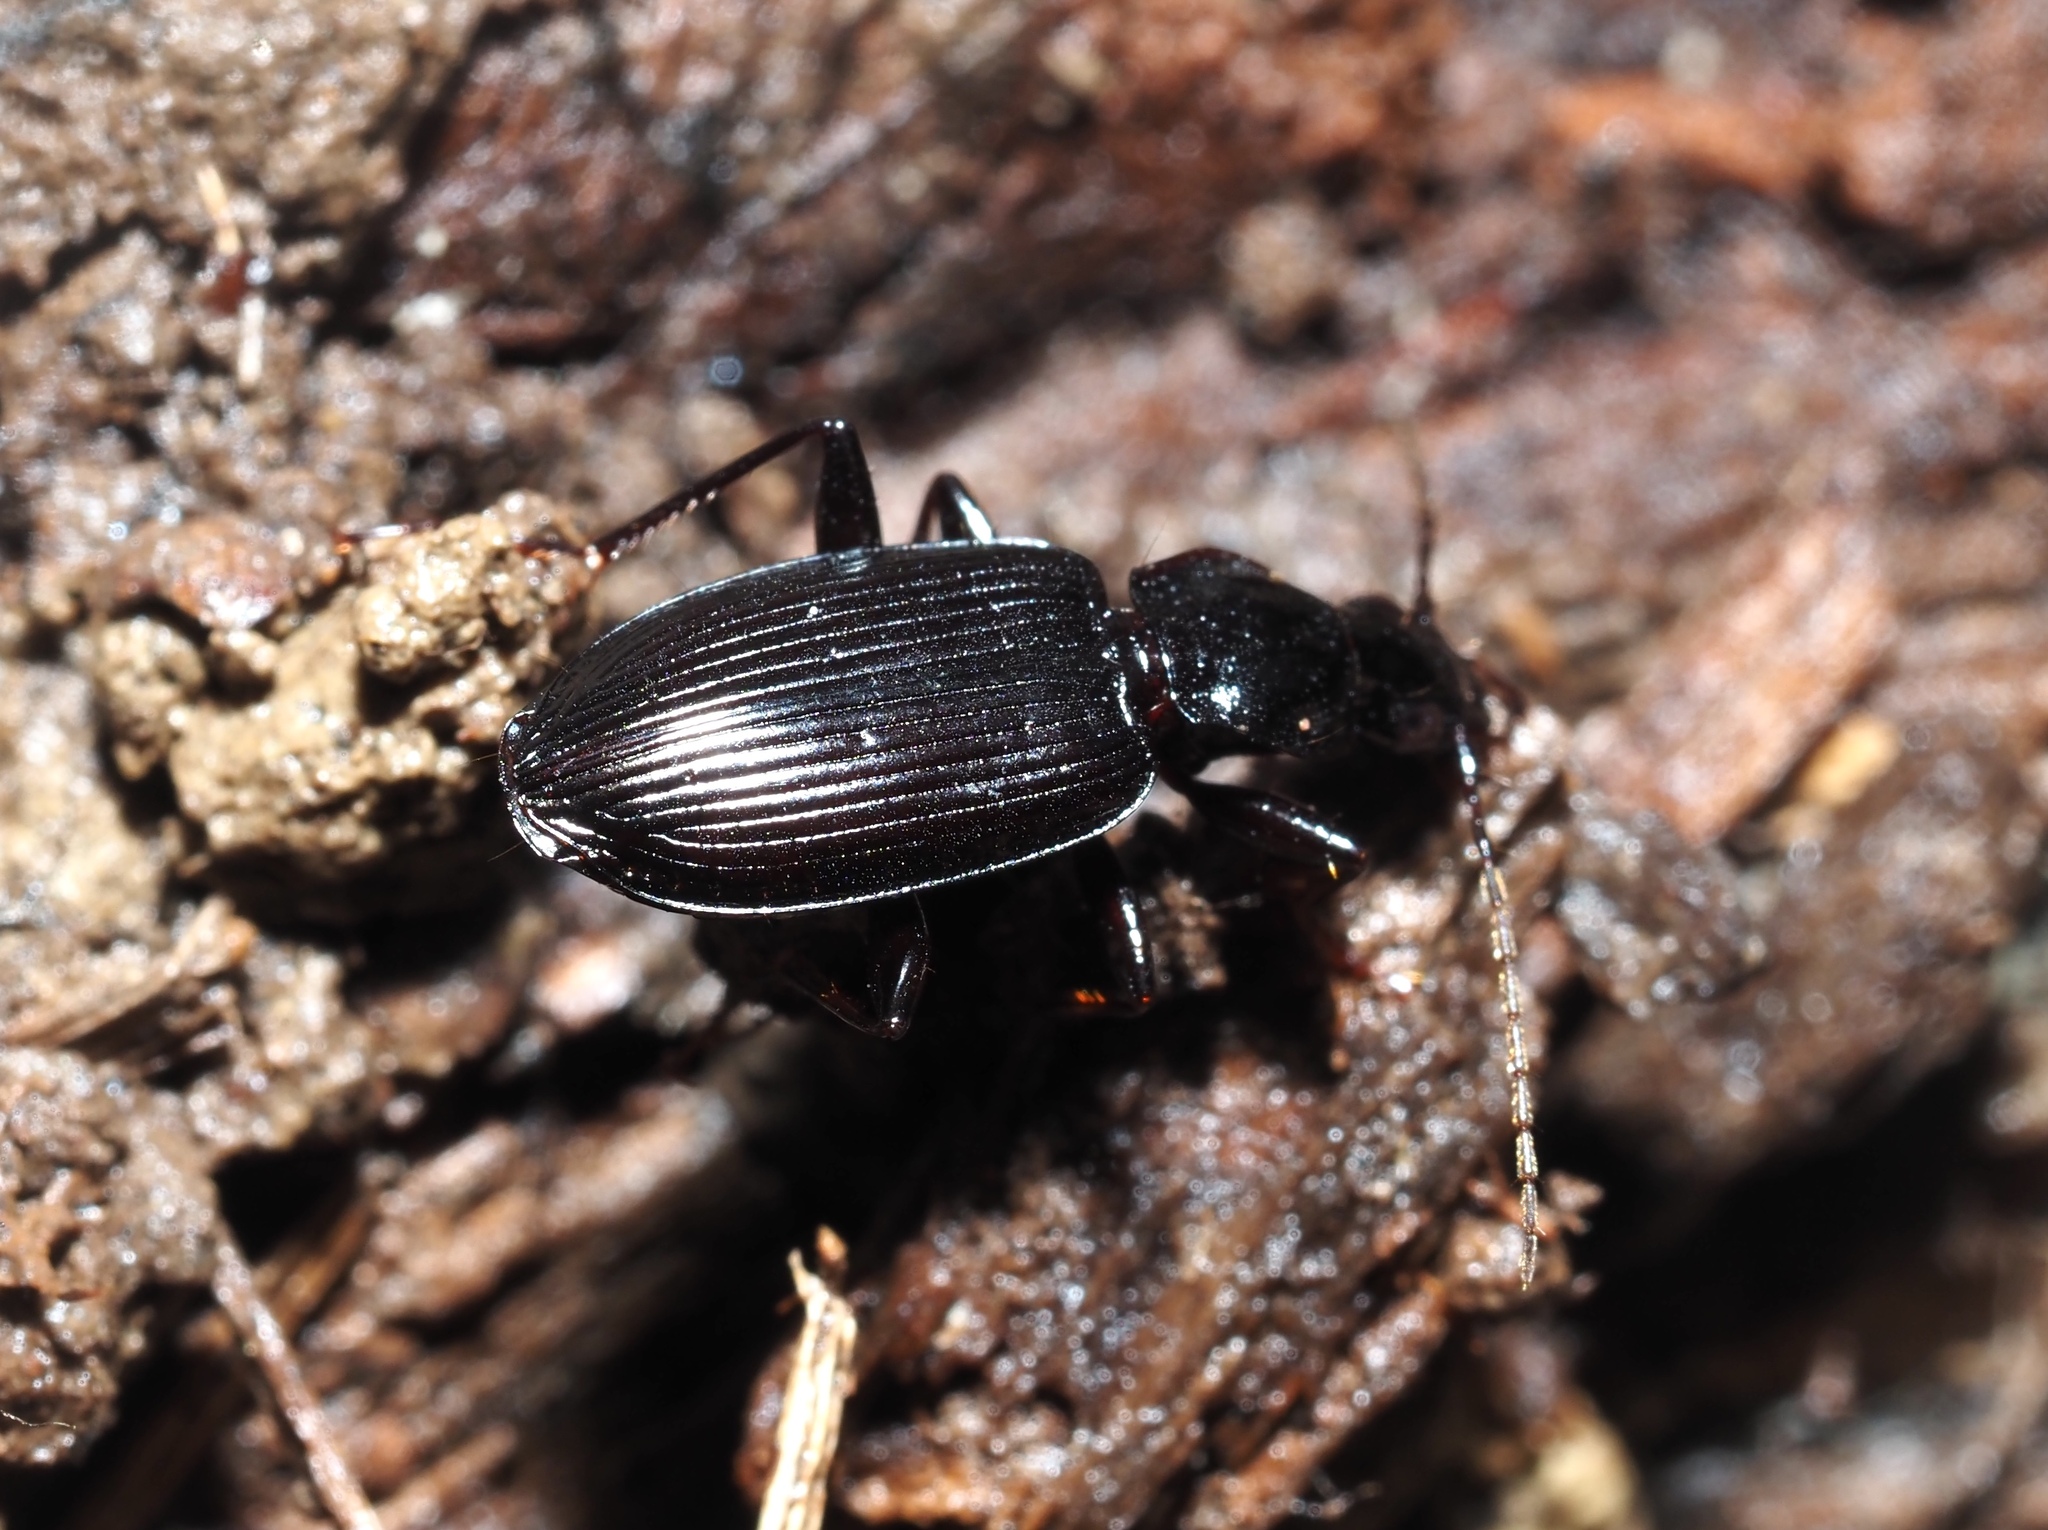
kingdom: Animalia
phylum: Arthropoda
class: Insecta
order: Coleoptera
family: Carabidae
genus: Platynus
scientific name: Platynus decentis
